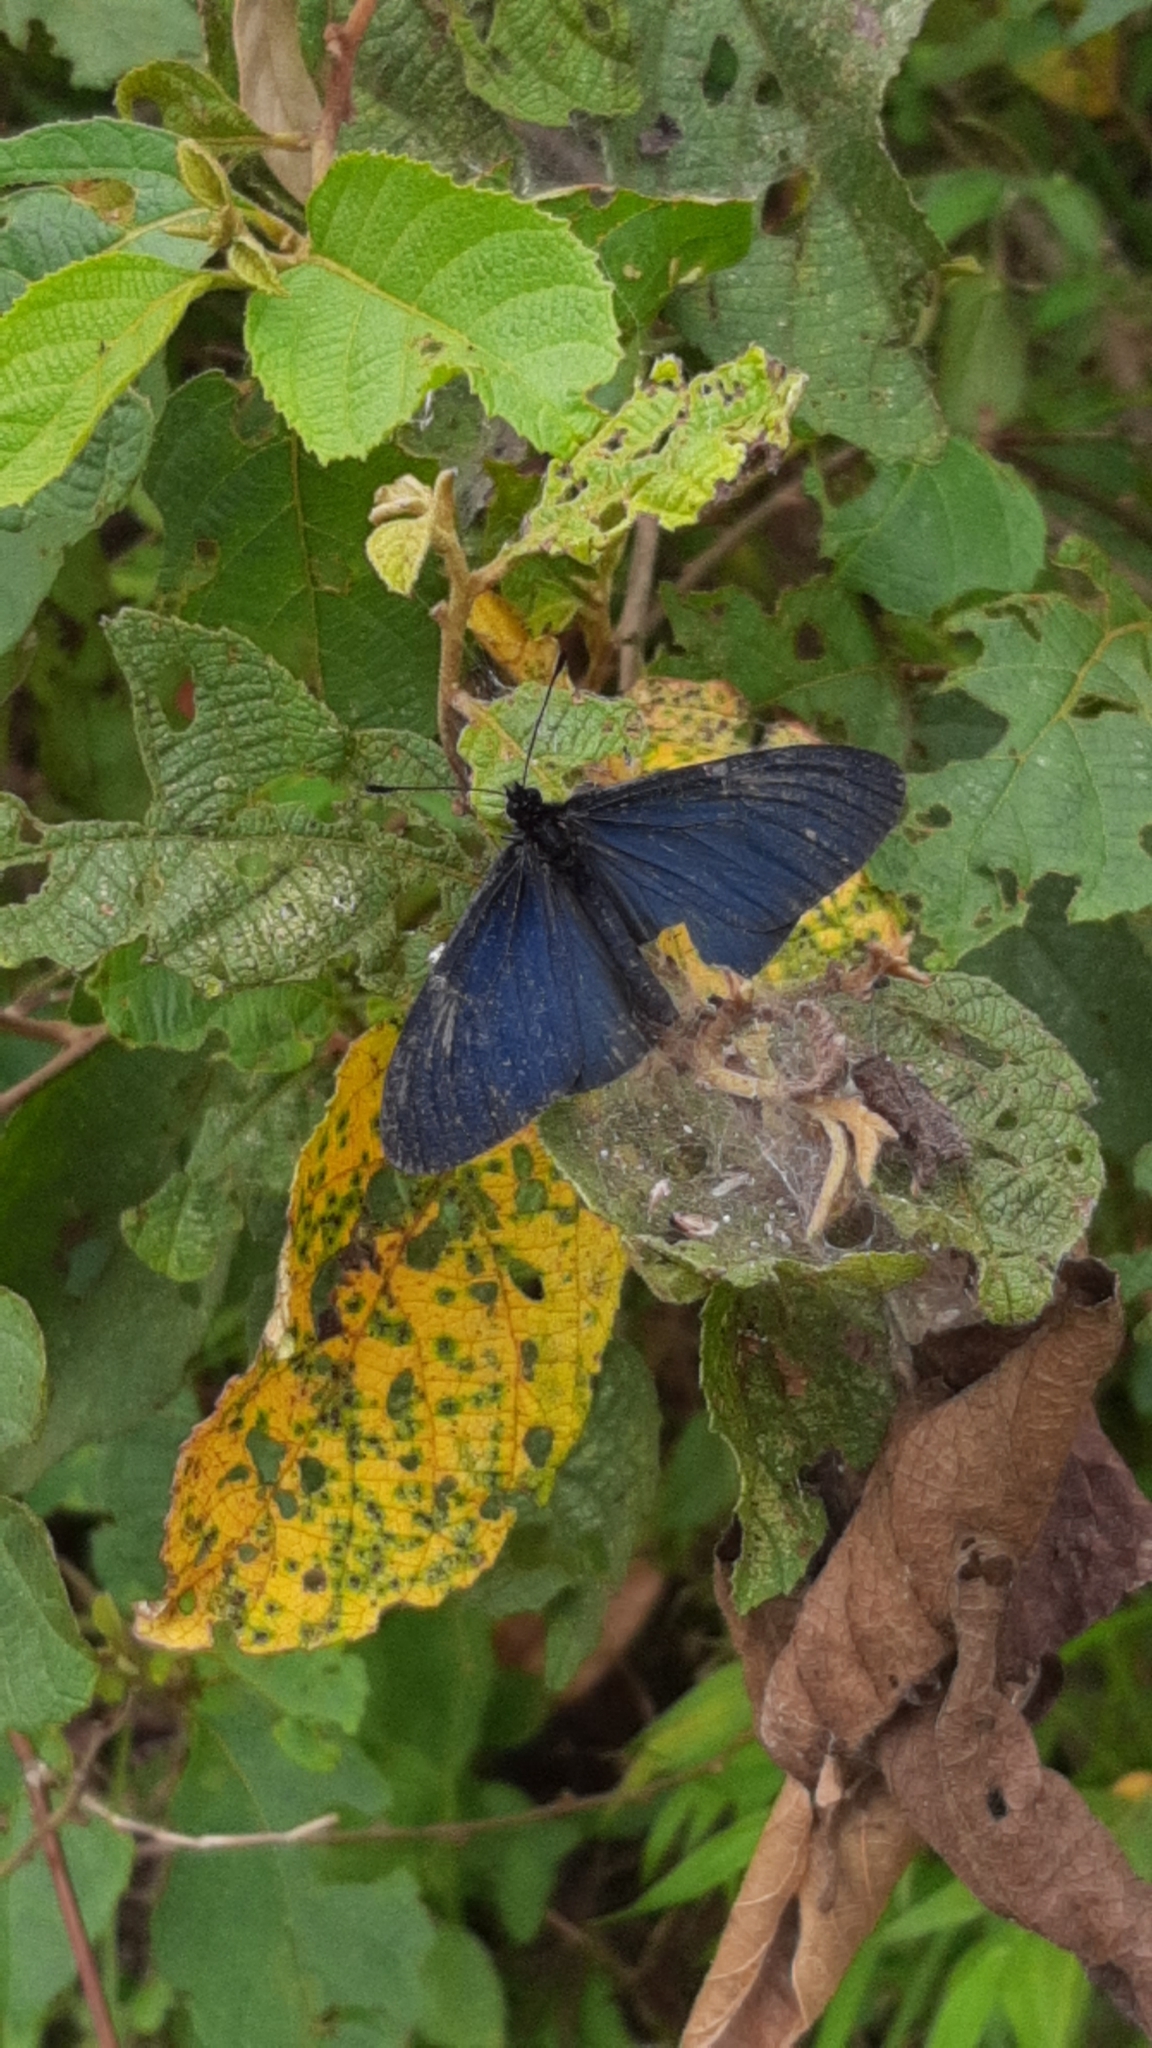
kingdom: Animalia
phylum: Arthropoda
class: Insecta
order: Lepidoptera
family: Nymphalidae
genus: Acraea
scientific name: Acraea Altinote ozomene
